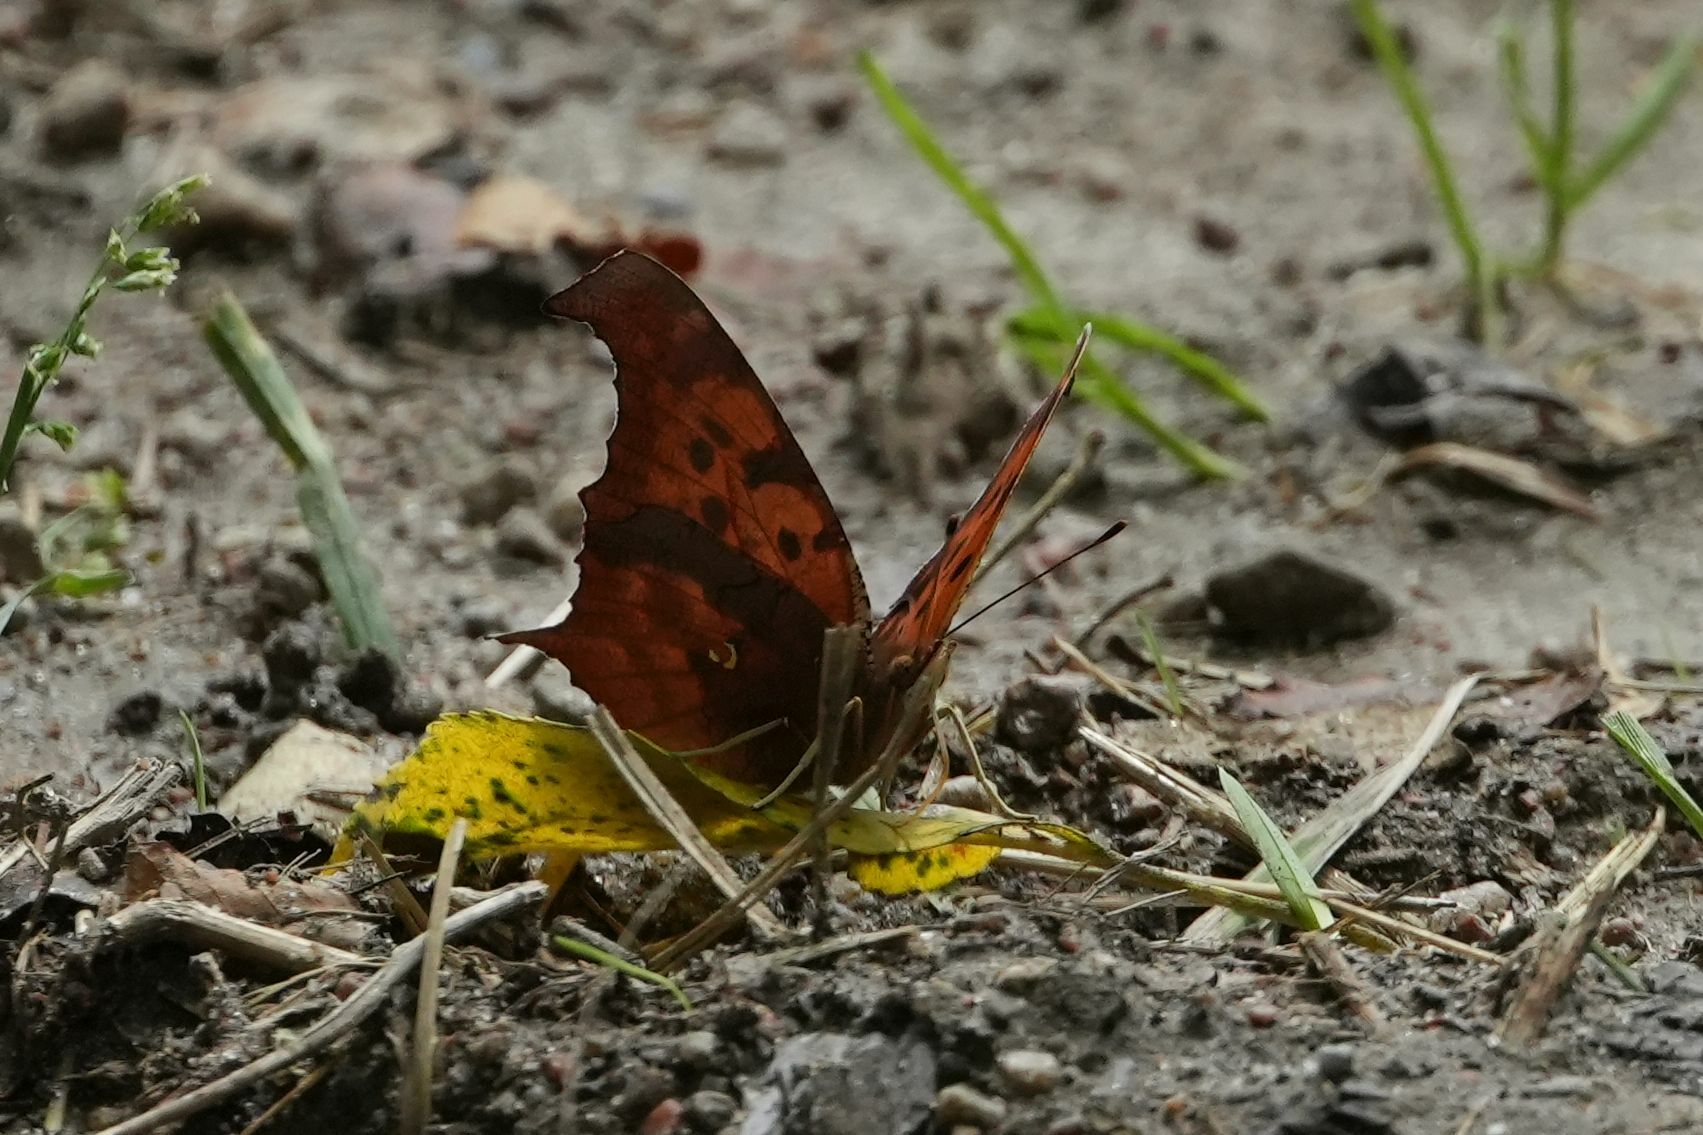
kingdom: Animalia
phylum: Arthropoda
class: Insecta
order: Lepidoptera
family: Nymphalidae
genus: Polygonia
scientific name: Polygonia interrogationis
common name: Question mark
